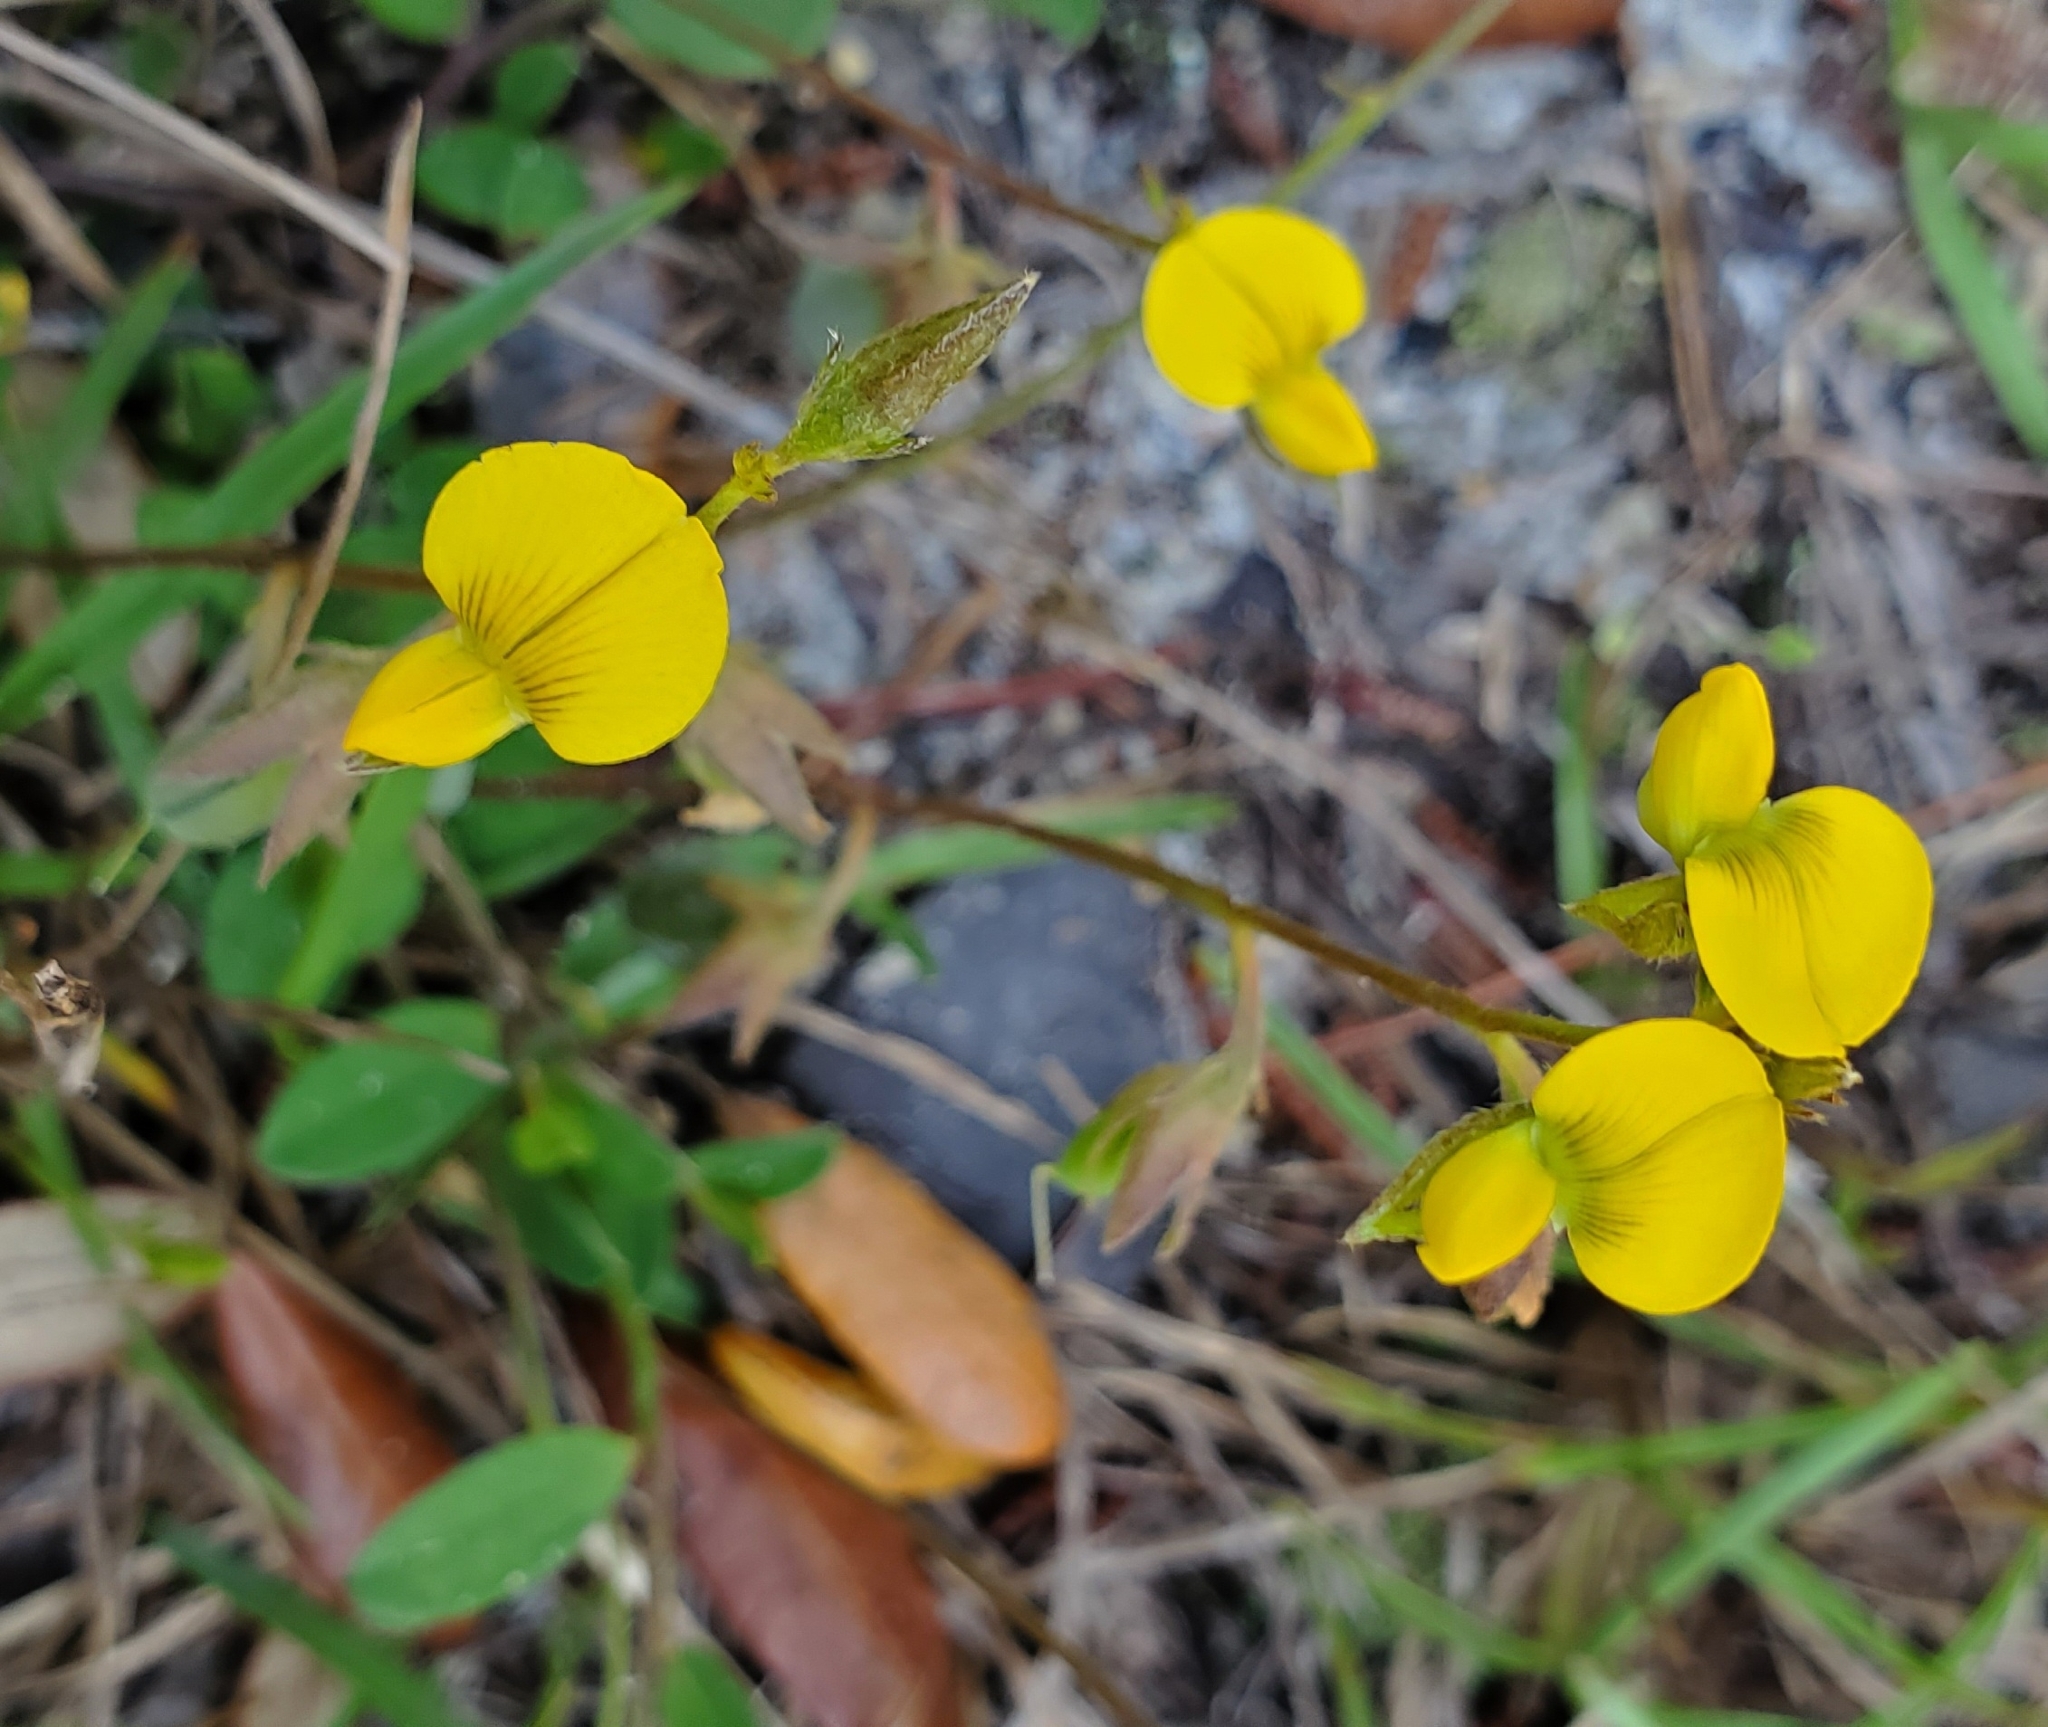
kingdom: Plantae
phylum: Tracheophyta
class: Magnoliopsida
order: Fabales
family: Fabaceae
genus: Crotalaria
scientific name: Crotalaria rotundifolia
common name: Prostrate rattlebox
